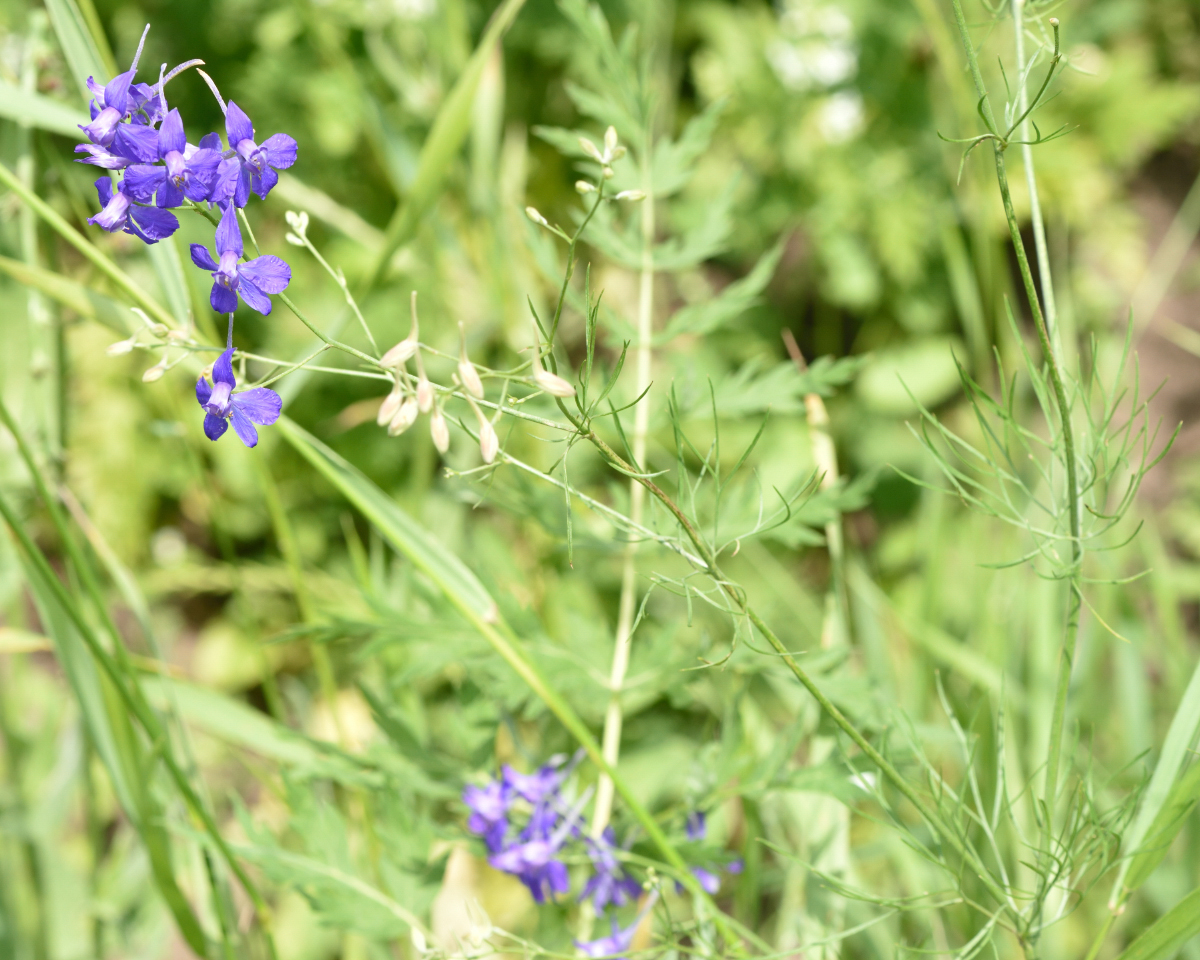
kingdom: Plantae
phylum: Tracheophyta
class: Magnoliopsida
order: Ranunculales
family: Ranunculaceae
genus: Delphinium
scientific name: Delphinium consolida
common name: Branching larkspur
